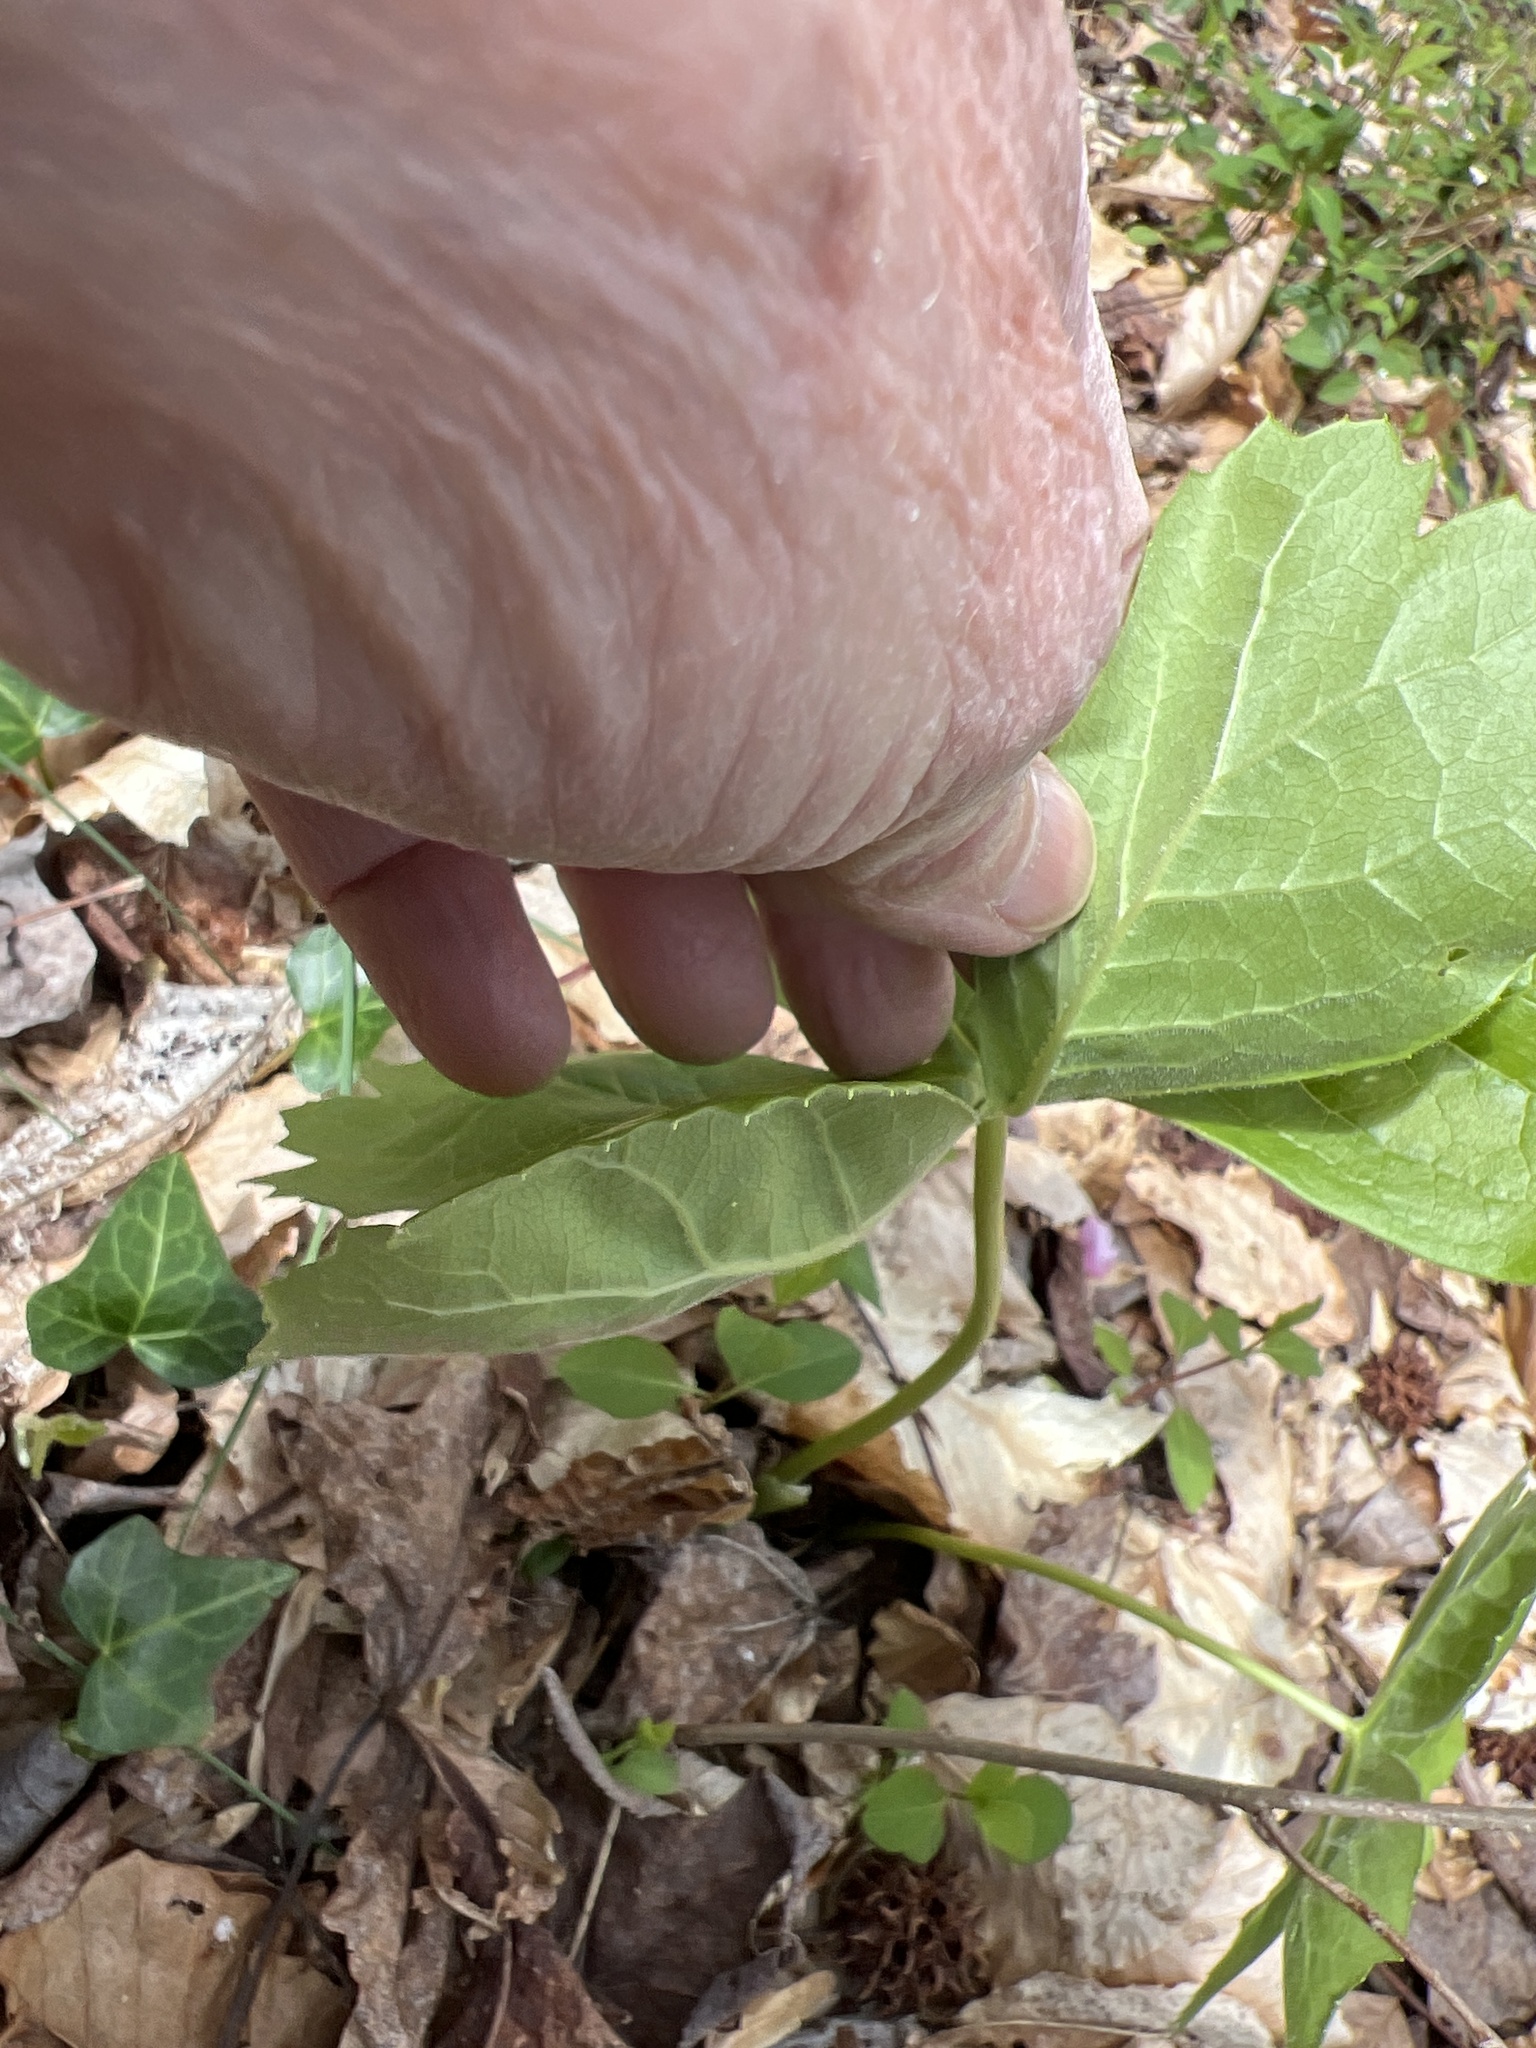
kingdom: Plantae
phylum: Tracheophyta
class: Magnoliopsida
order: Ranunculales
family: Berberidaceae
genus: Podophyllum
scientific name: Podophyllum peltatum
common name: Wild mandrake
